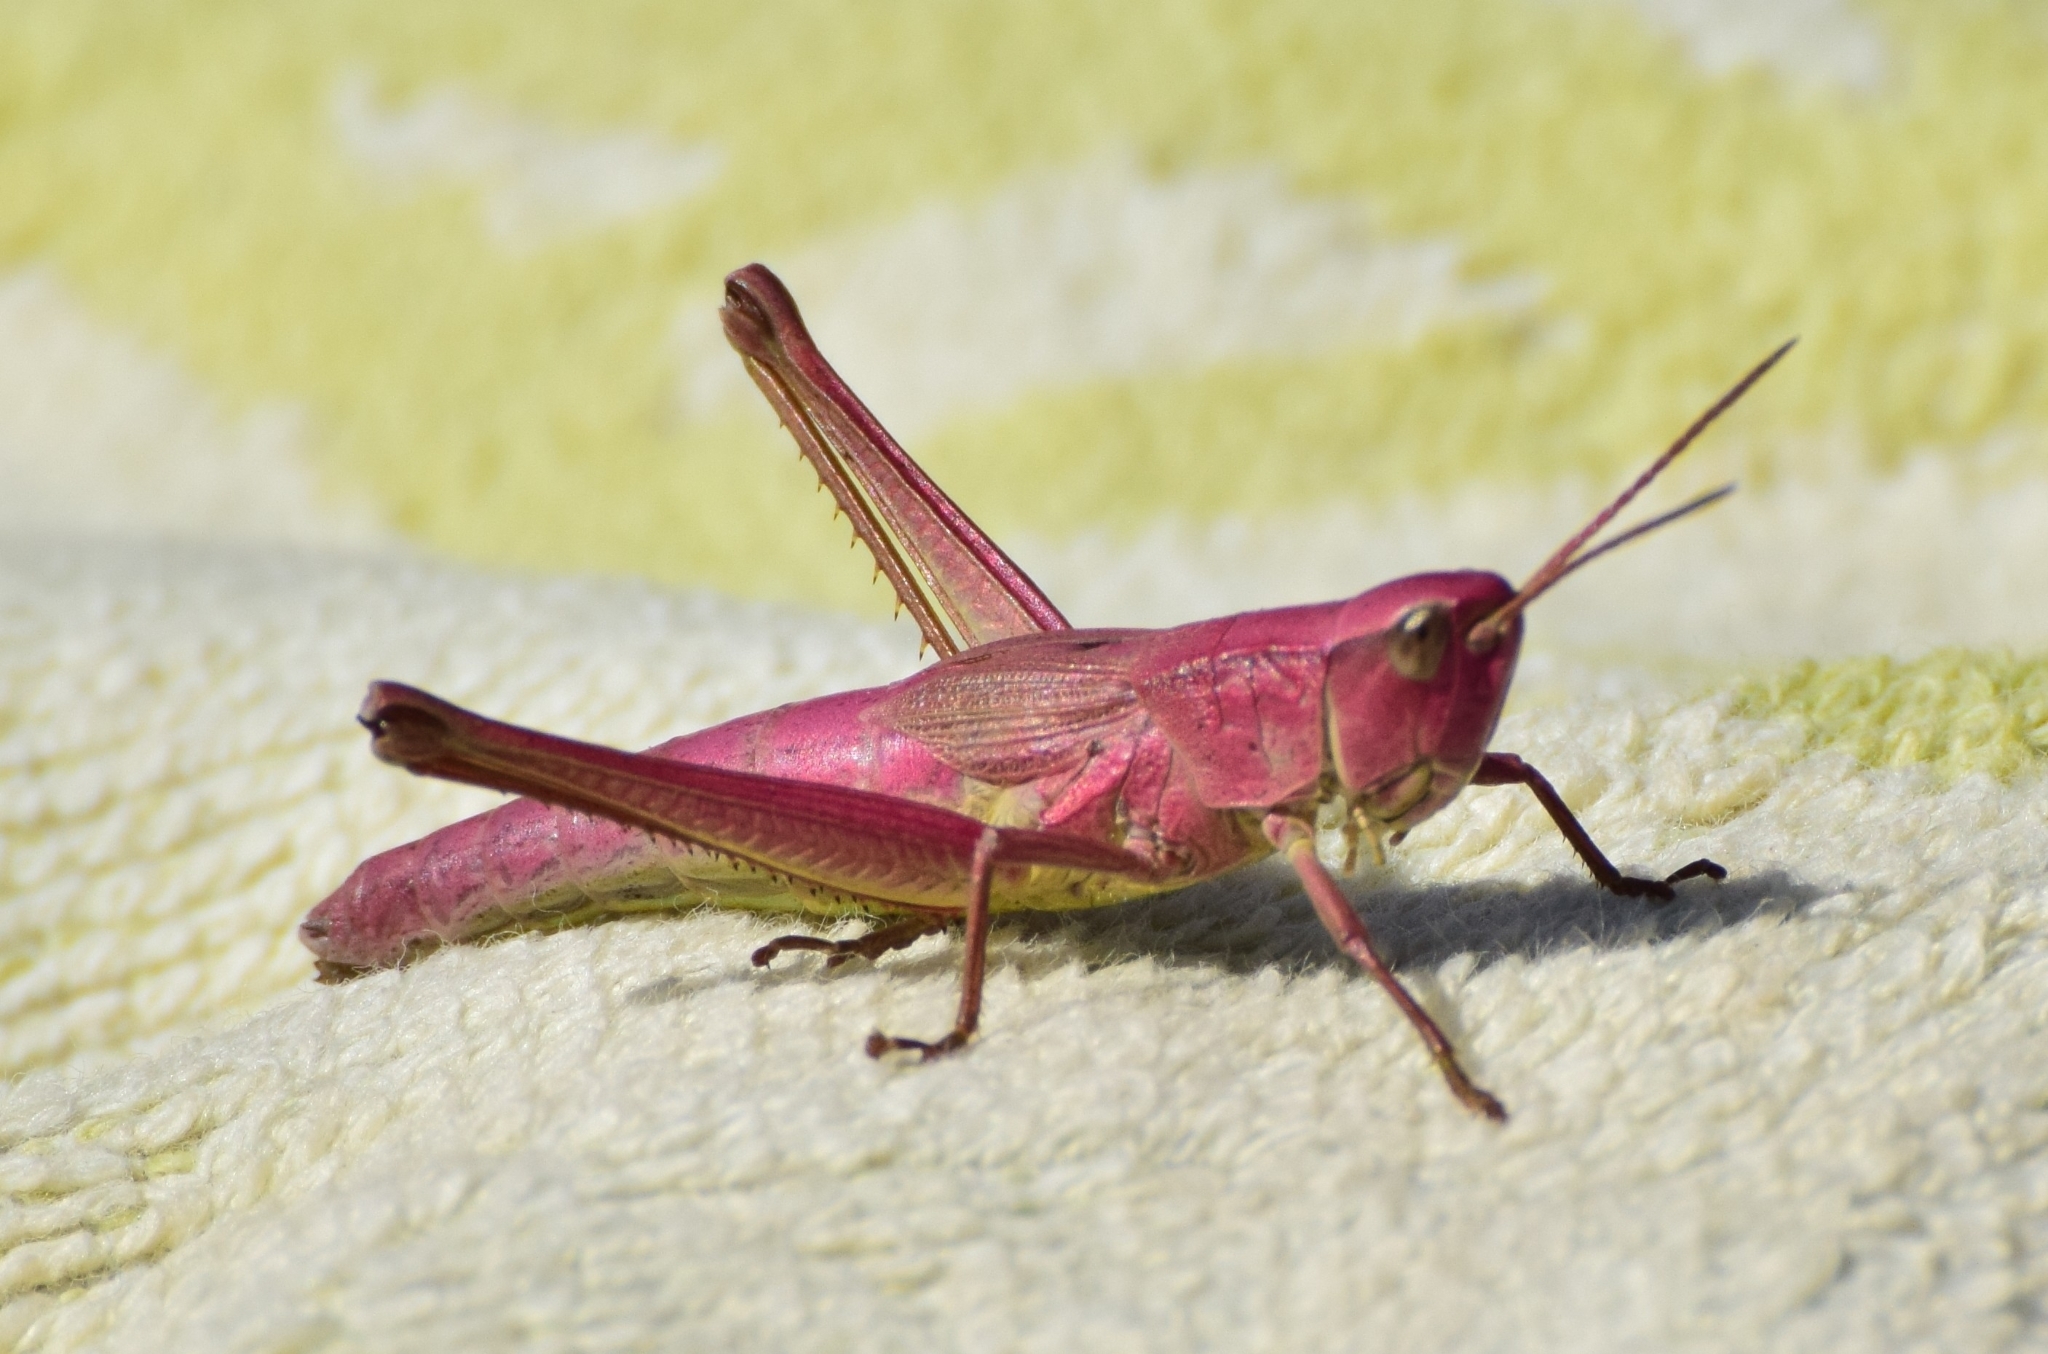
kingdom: Animalia
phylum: Arthropoda
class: Insecta
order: Orthoptera
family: Acrididae
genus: Chrysochraon
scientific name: Chrysochraon dispar
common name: Large gold grasshopper
